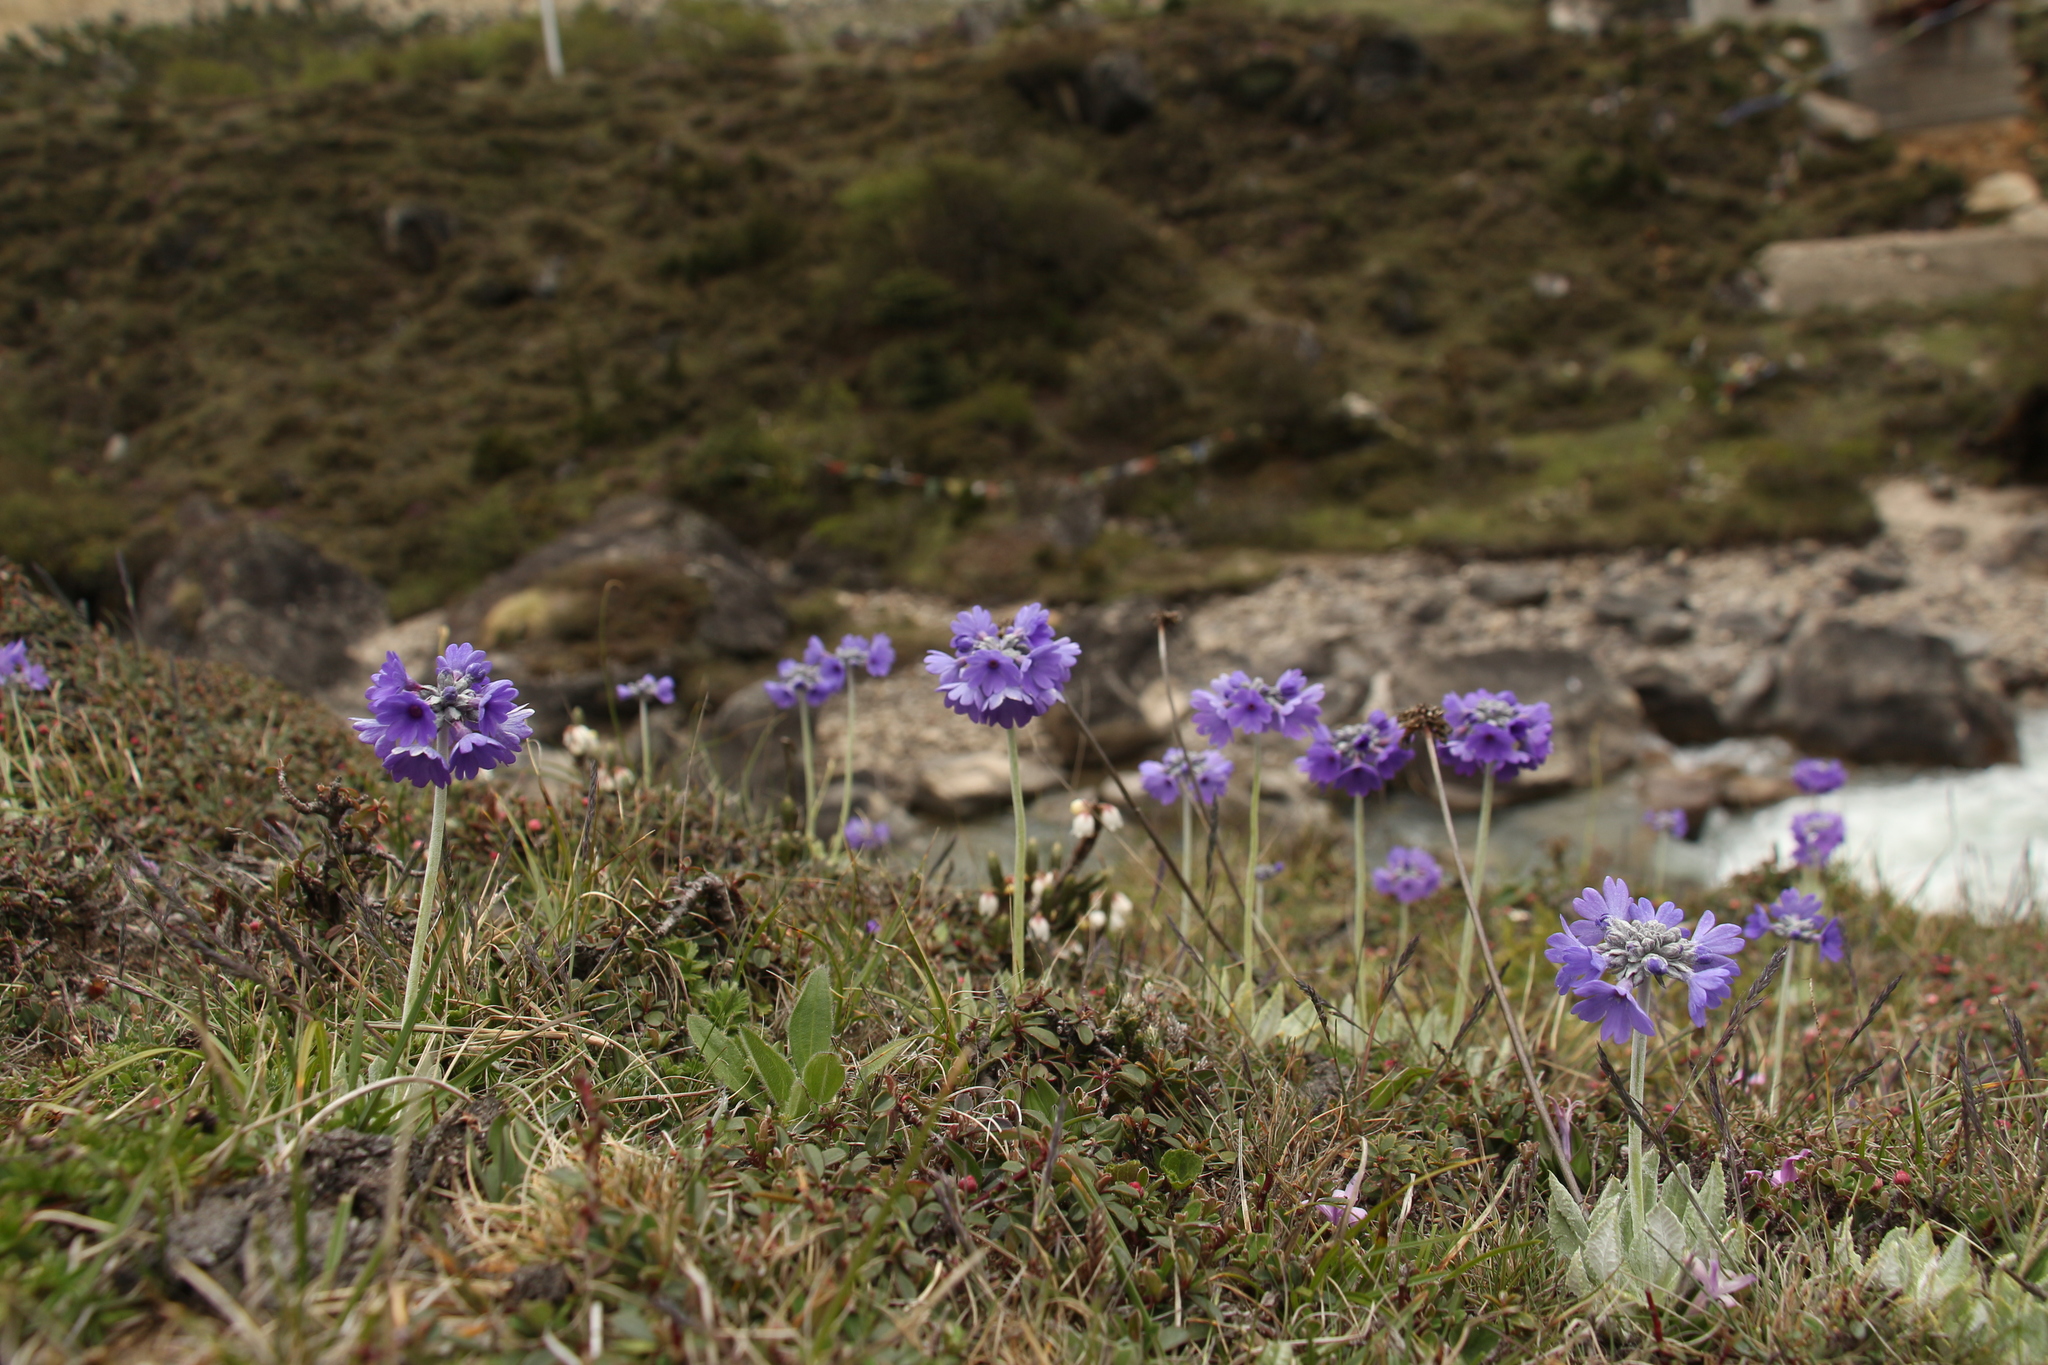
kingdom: Plantae
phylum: Tracheophyta
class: Magnoliopsida
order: Ericales
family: Primulaceae
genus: Primula
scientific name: Primula capitata
